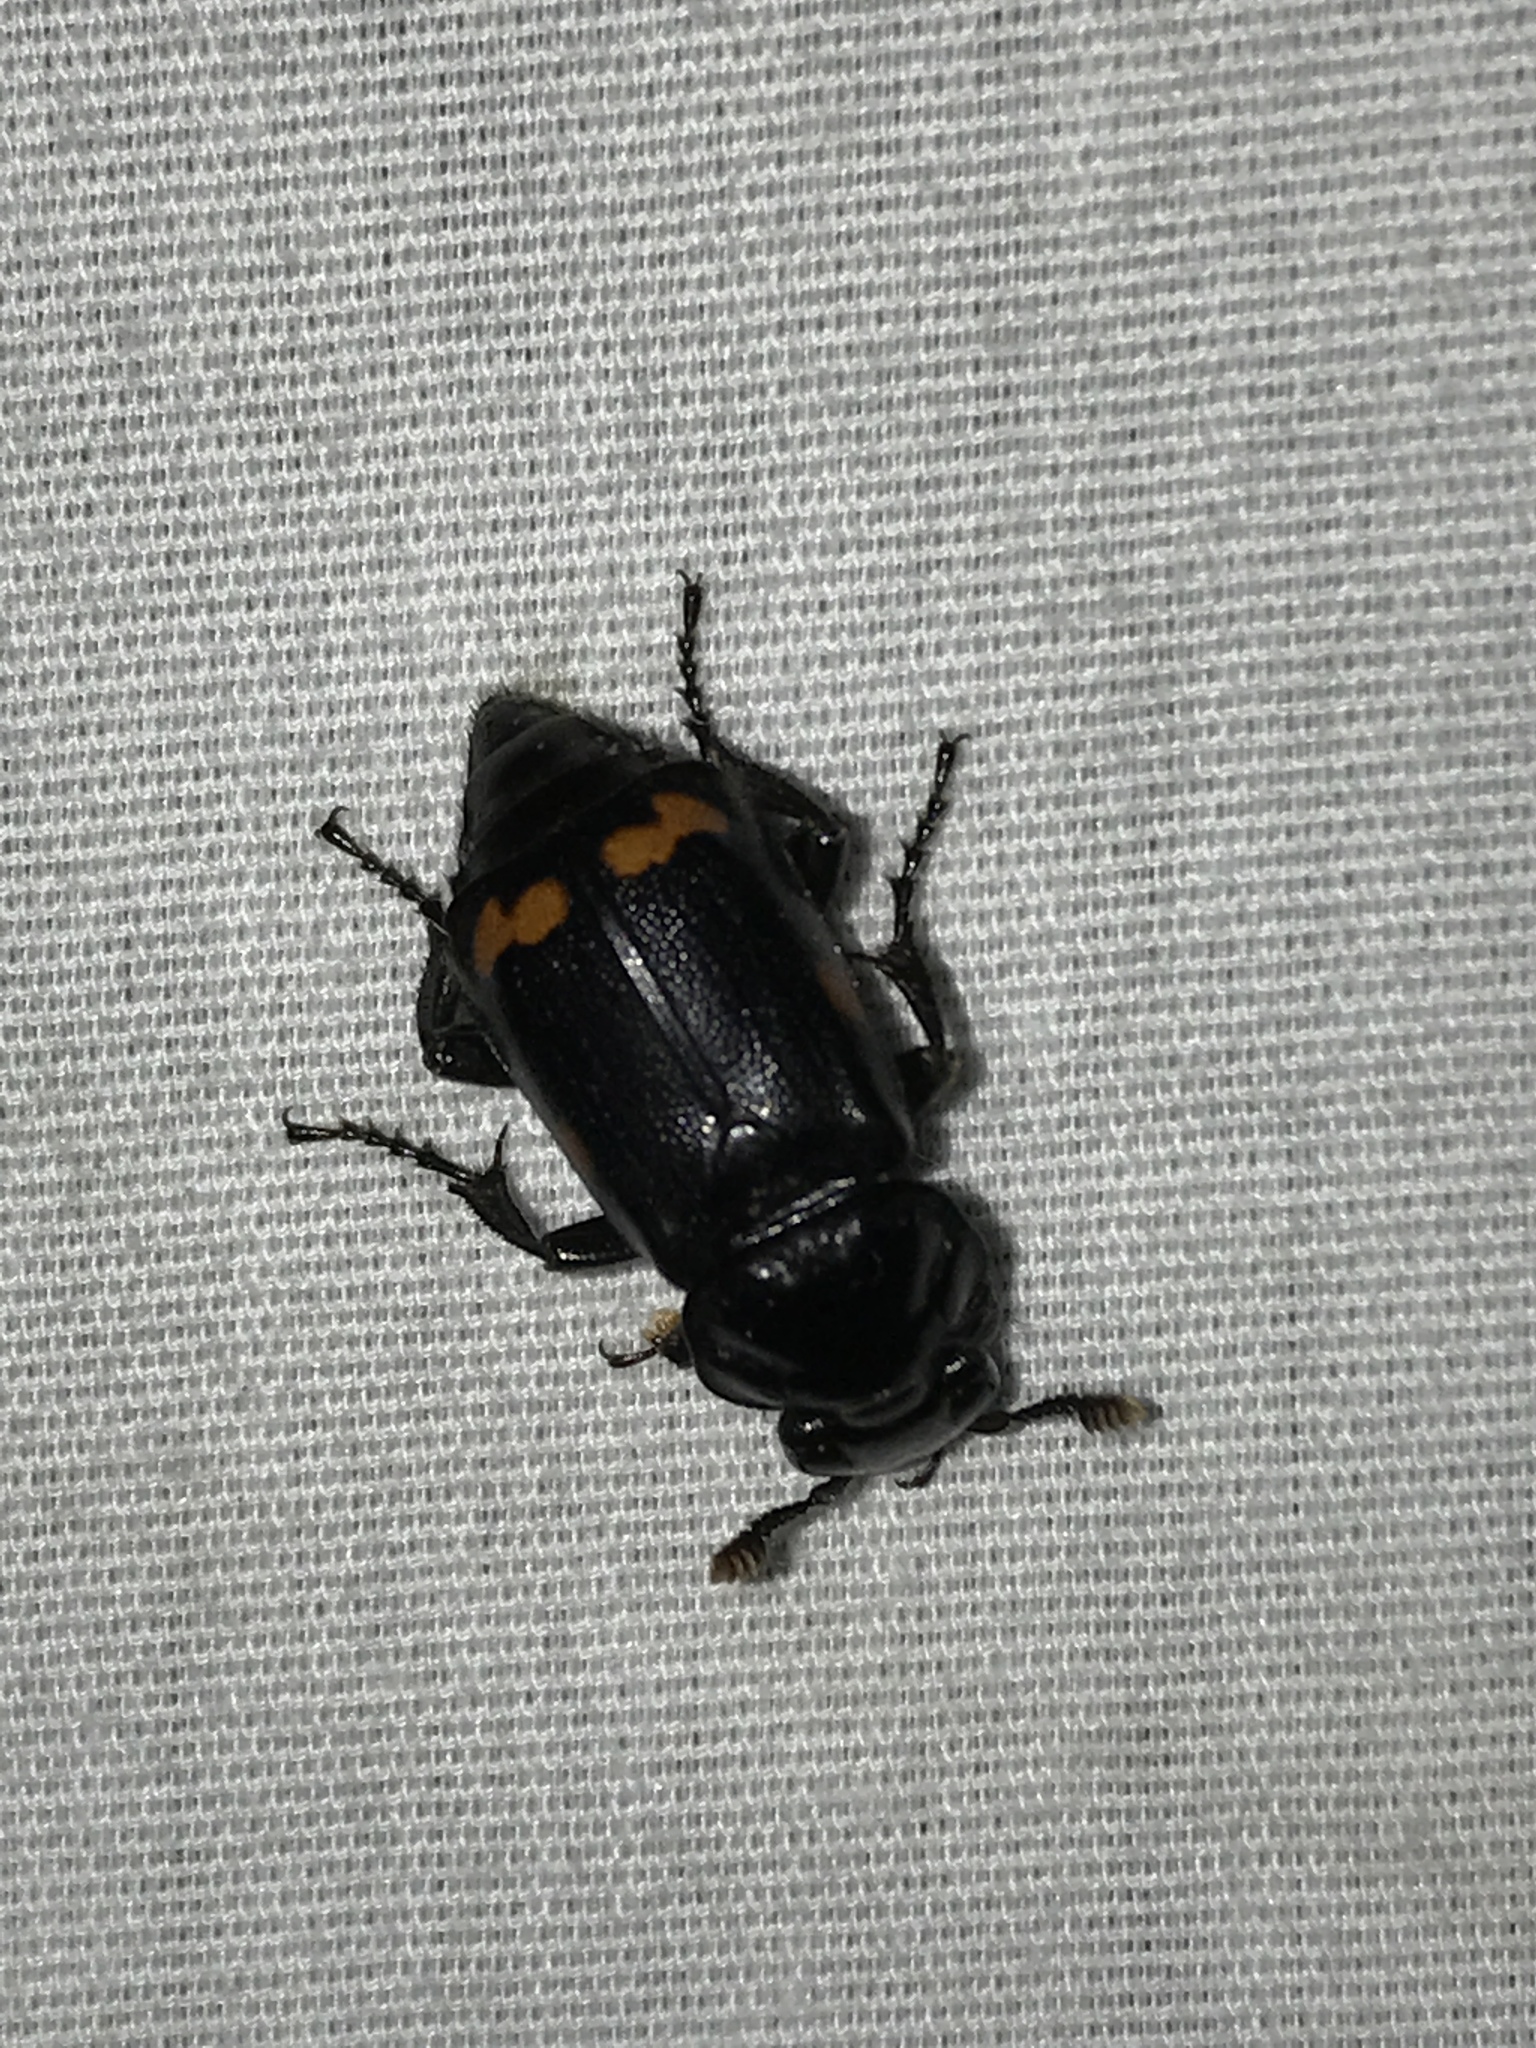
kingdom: Animalia
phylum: Arthropoda
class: Insecta
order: Coleoptera
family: Staphylinidae
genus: Nicrophorus
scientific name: Nicrophorus pustulatus
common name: Pustulated carrion beetle
